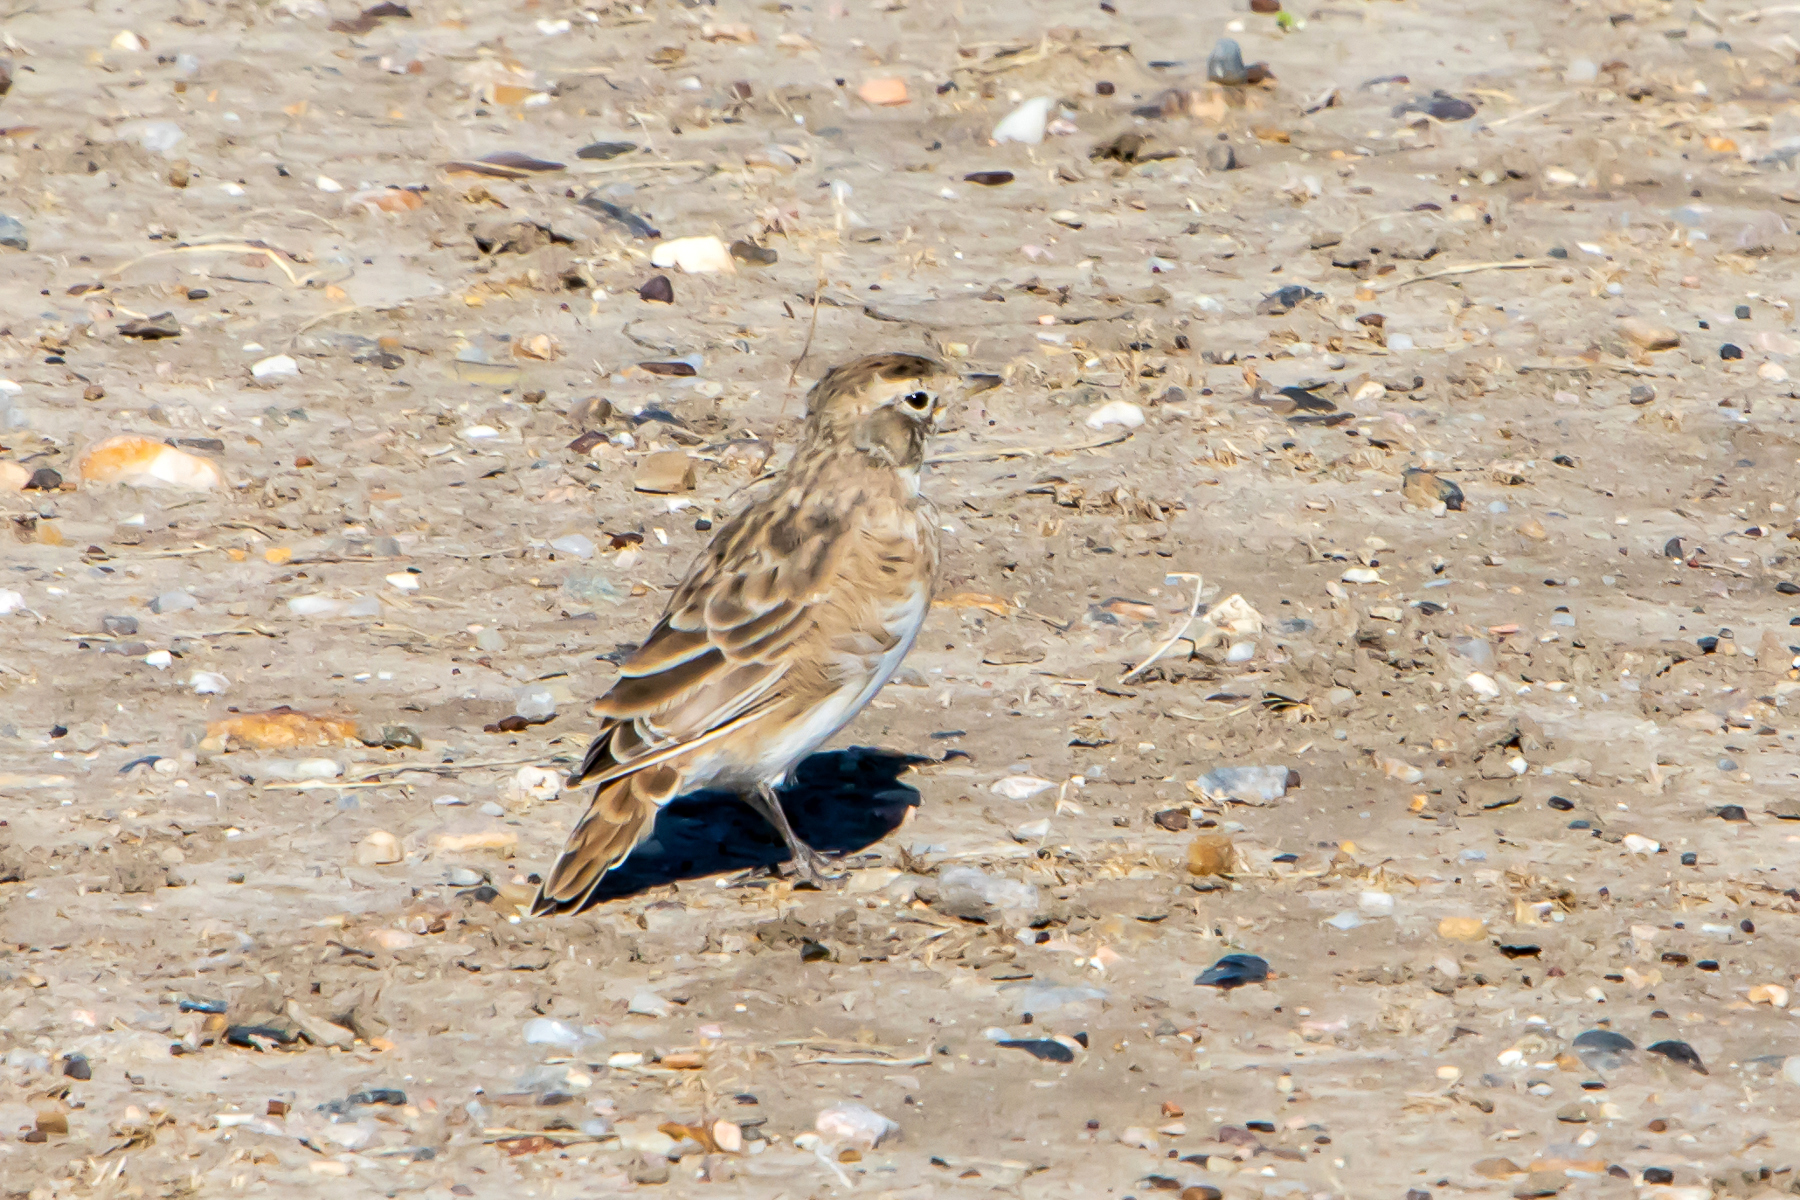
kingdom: Animalia
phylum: Chordata
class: Aves
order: Passeriformes
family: Alaudidae
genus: Eremophila
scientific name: Eremophila alpestris
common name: Horned lark
